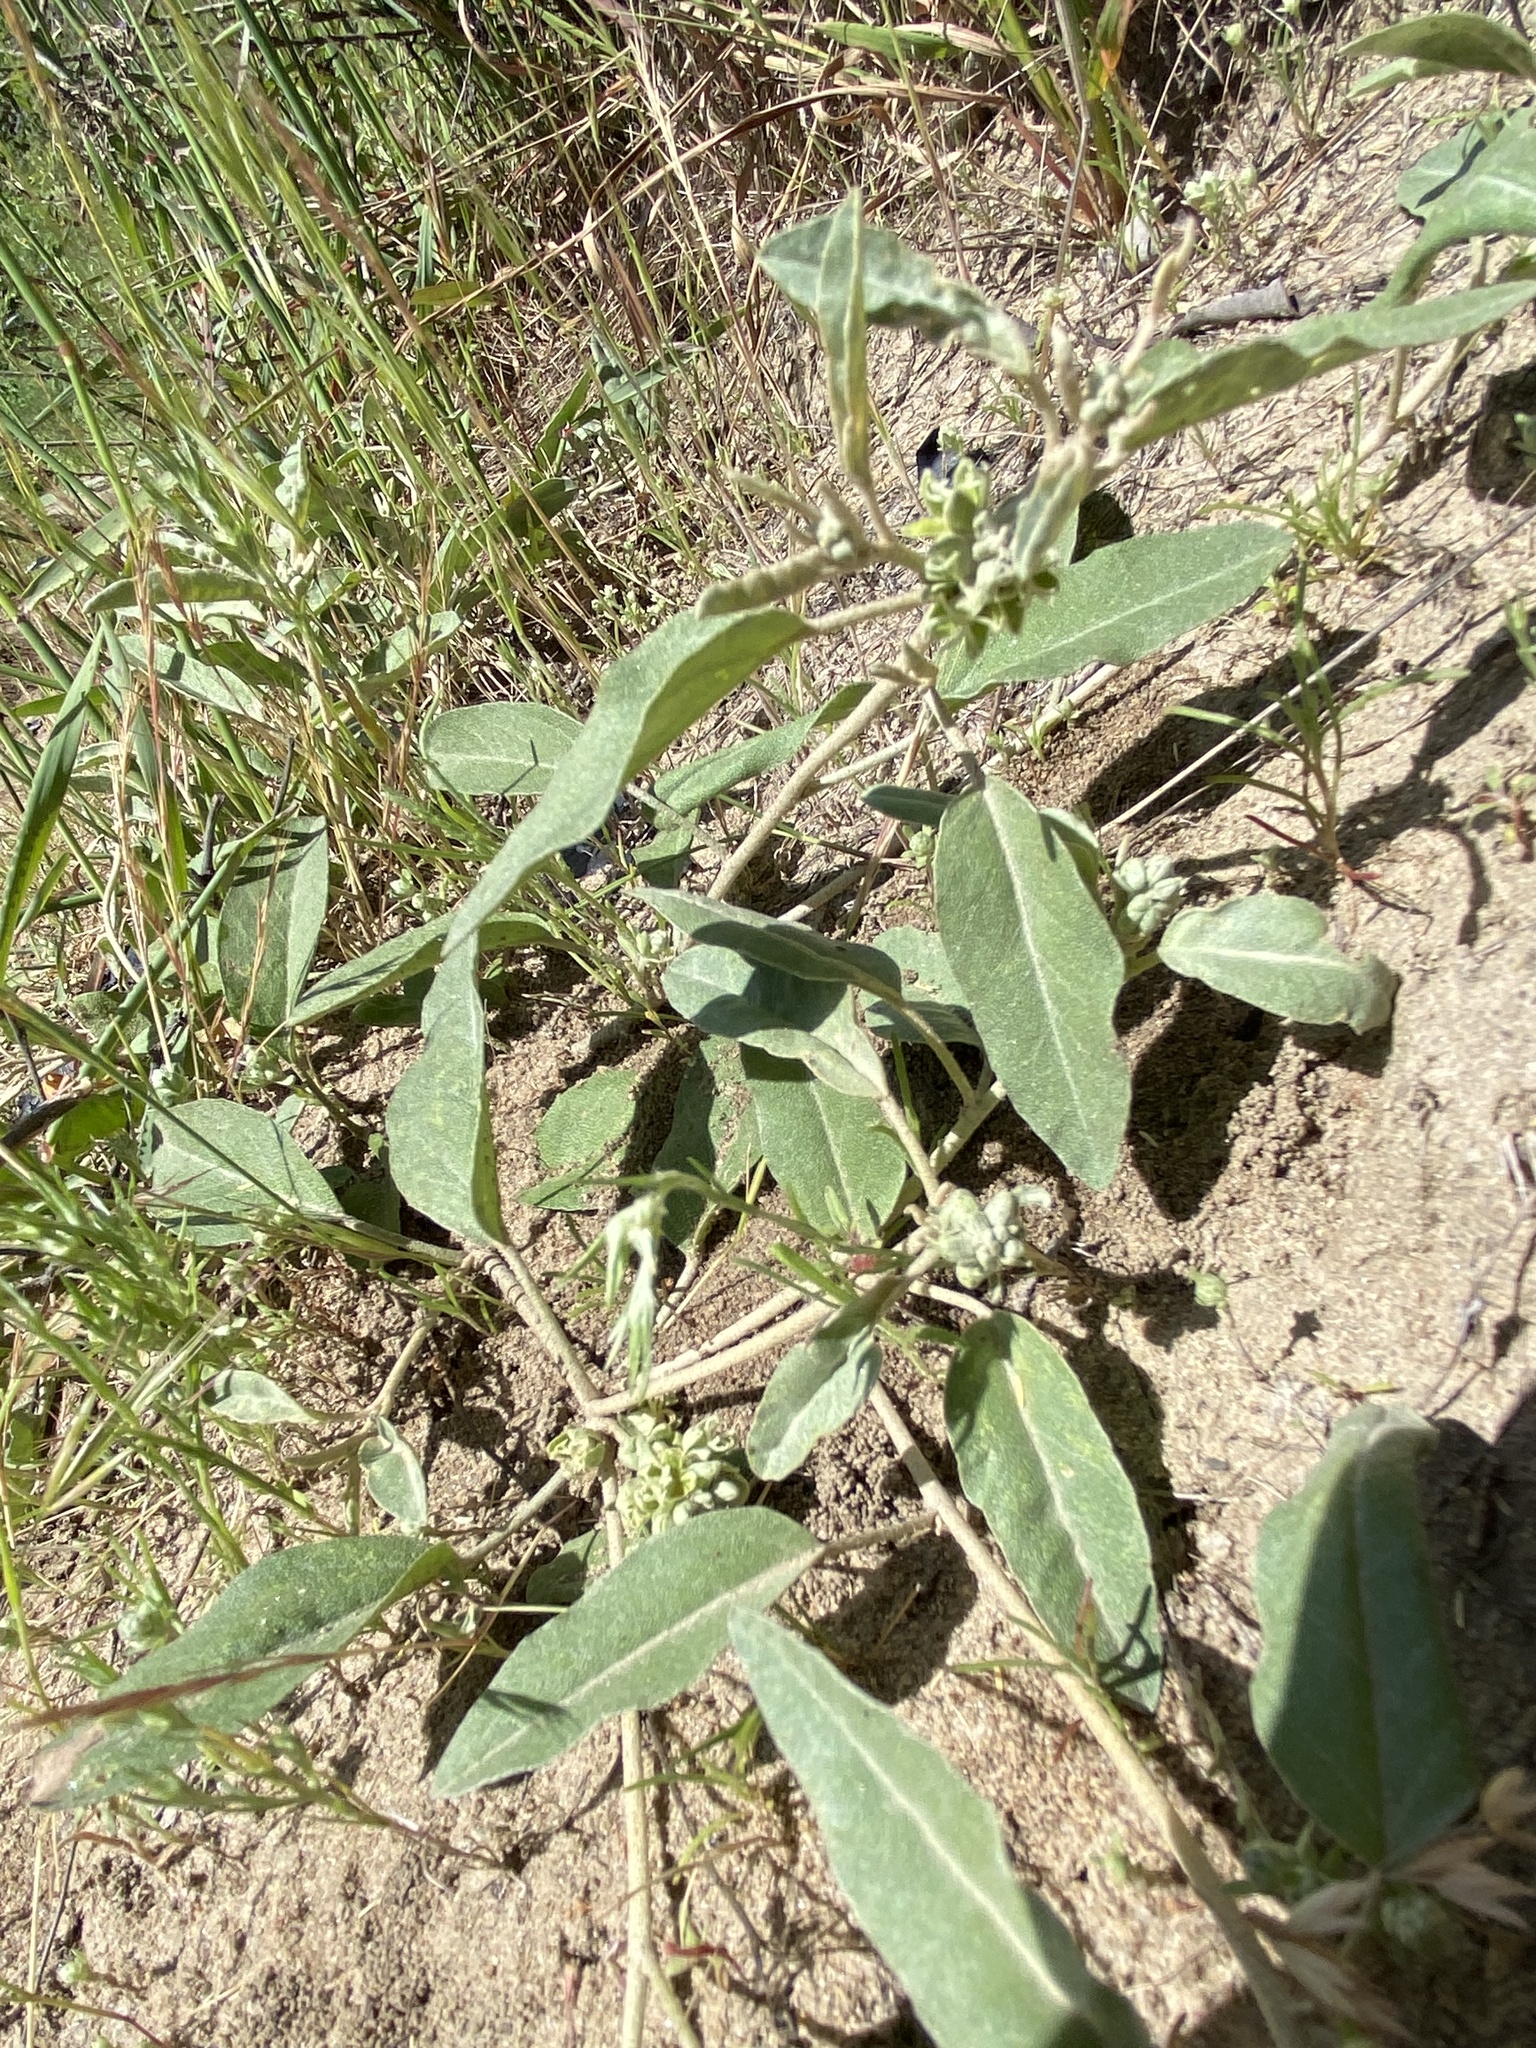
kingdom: Plantae
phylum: Tracheophyta
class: Magnoliopsida
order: Malpighiales
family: Euphorbiaceae
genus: Croton
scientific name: Croton californicus
